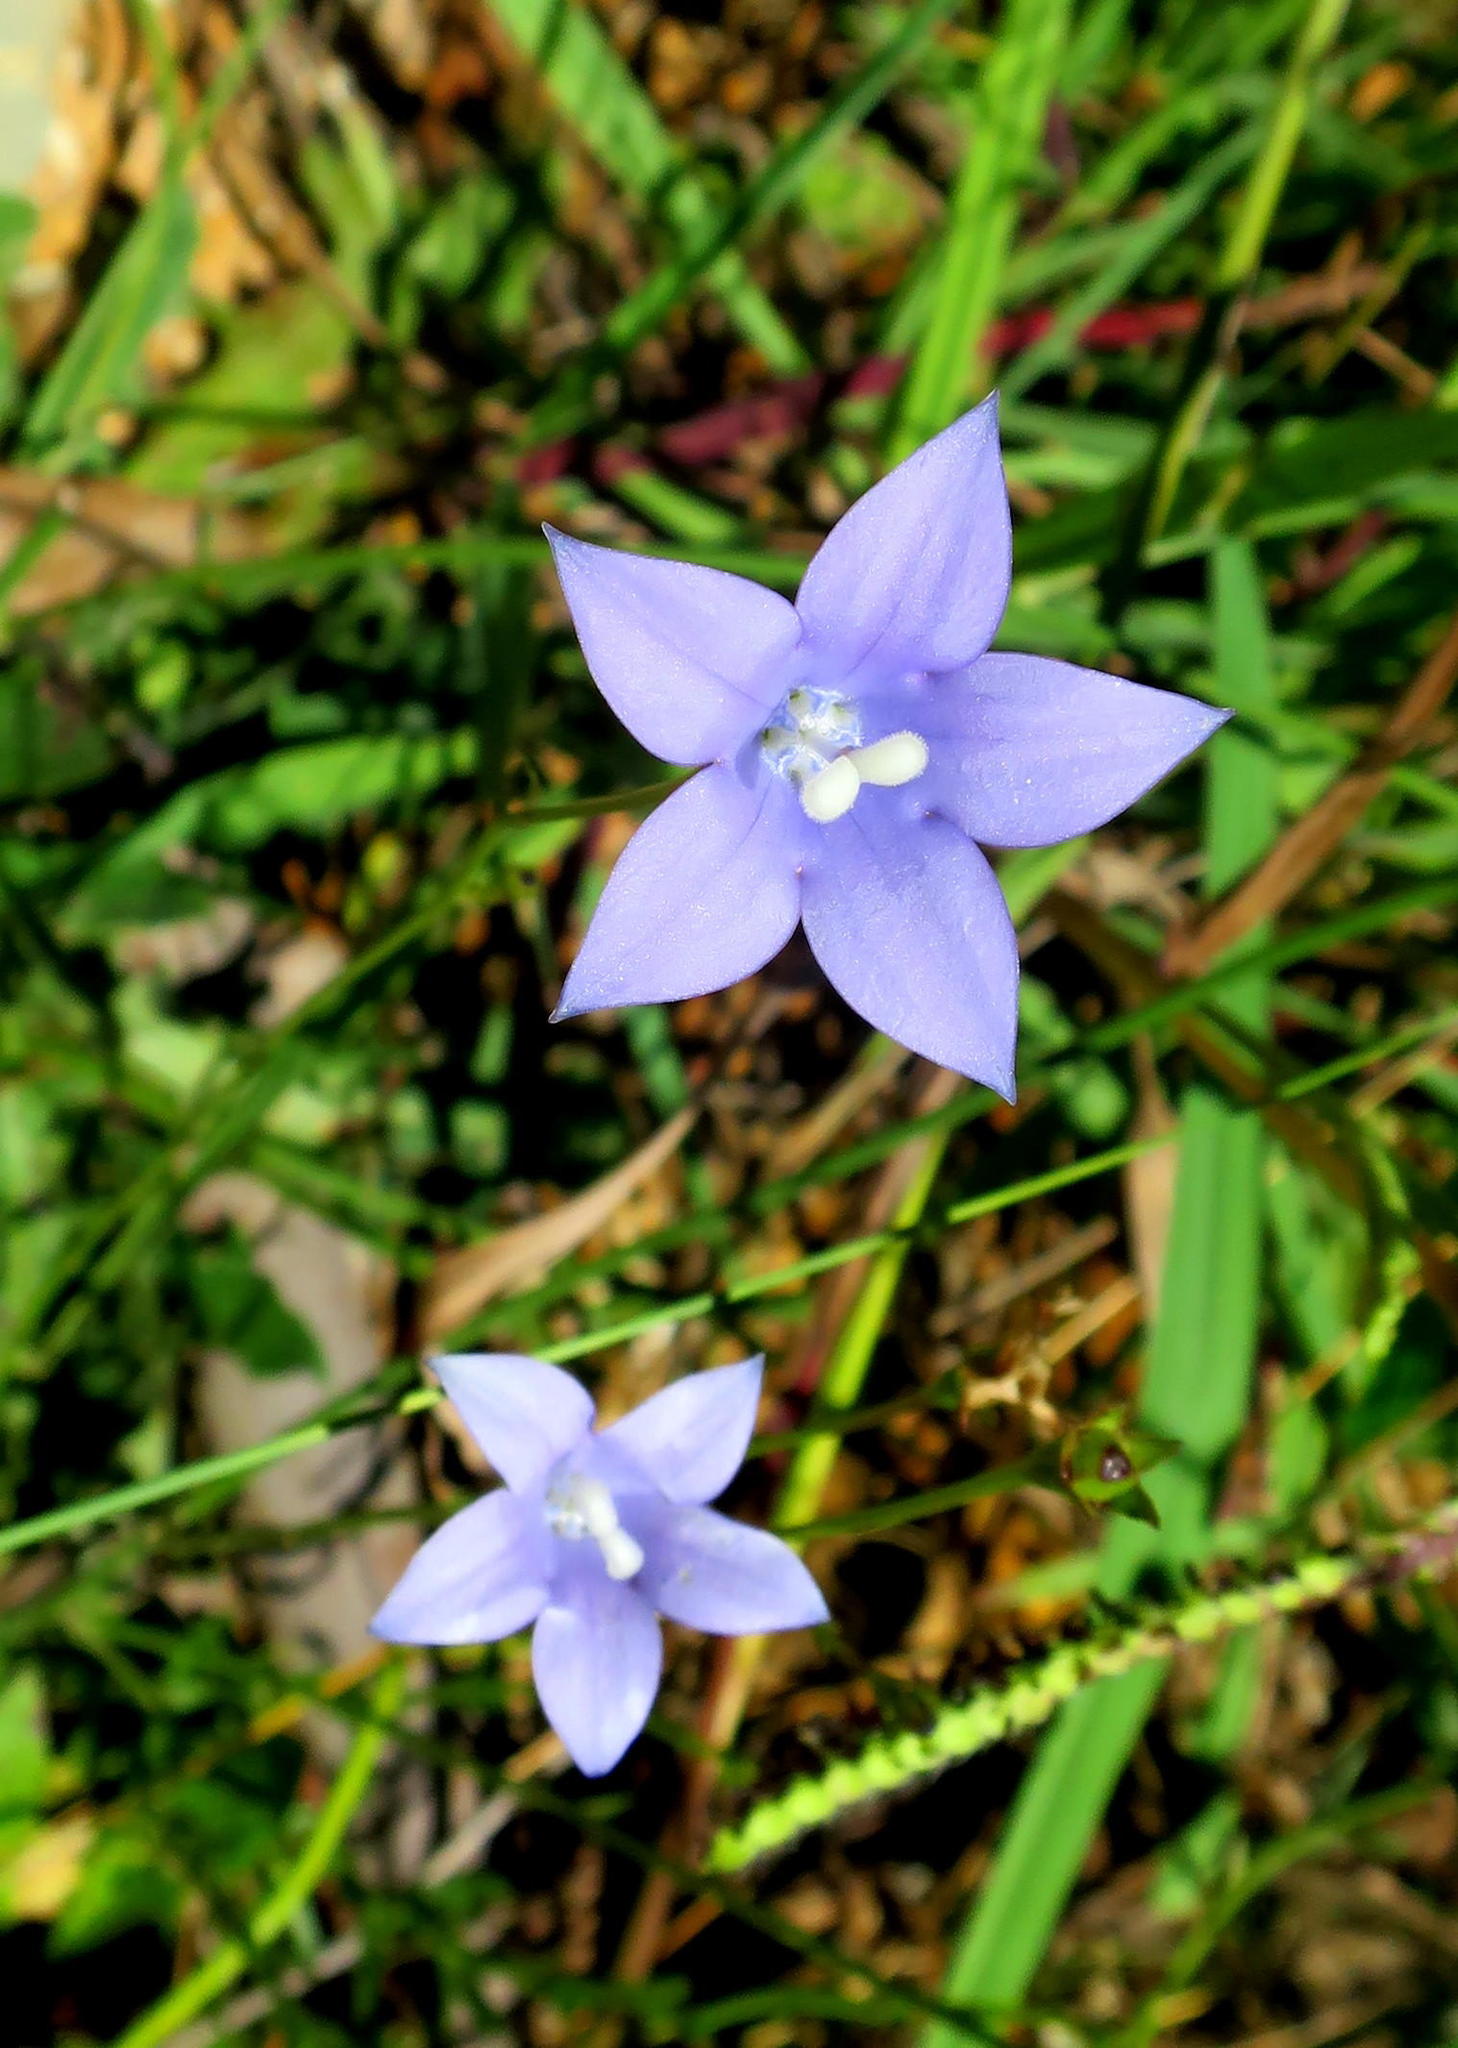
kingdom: Plantae
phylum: Tracheophyta
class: Magnoliopsida
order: Asterales
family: Campanulaceae
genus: Wahlenbergia
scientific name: Wahlenbergia undulata
